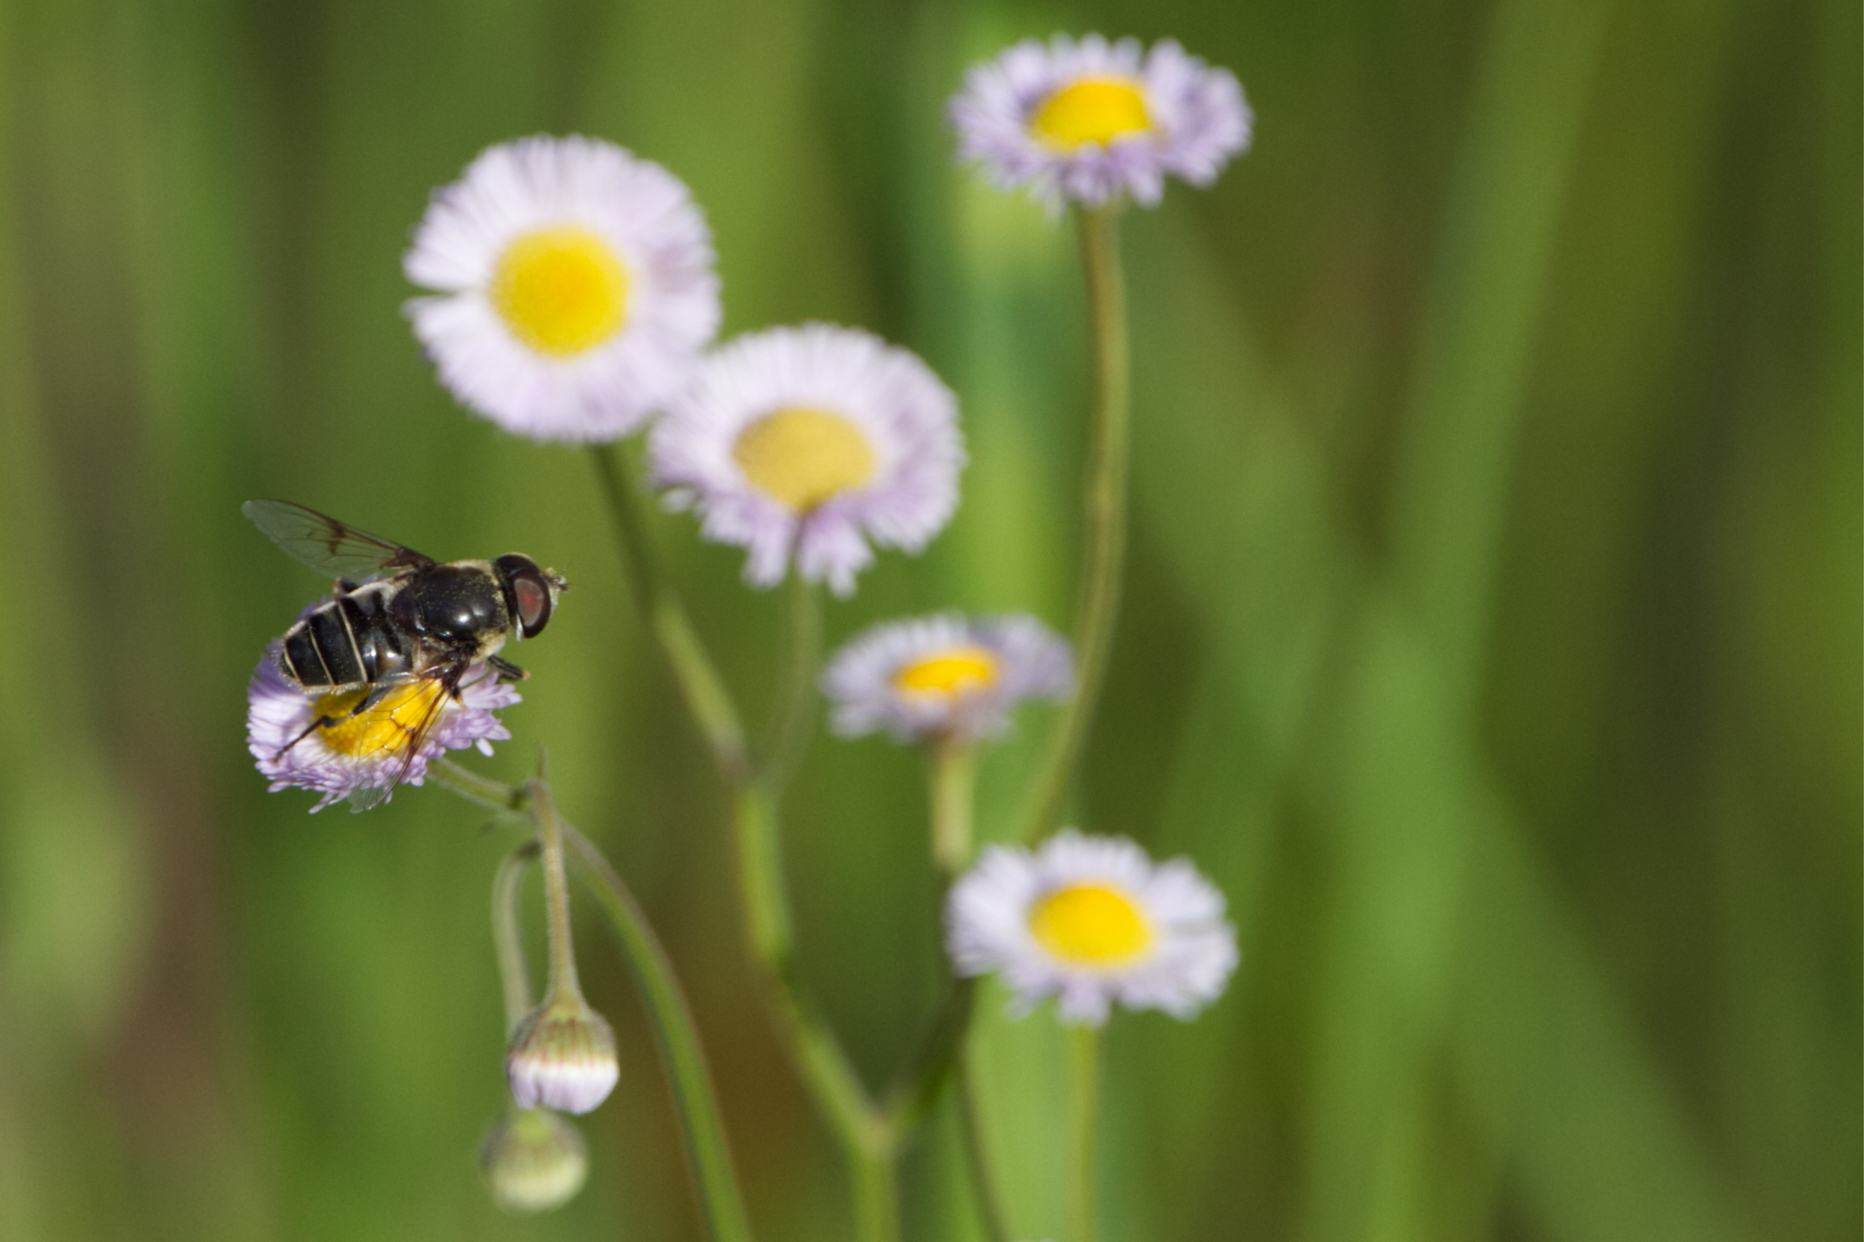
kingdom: Animalia
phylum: Arthropoda
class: Insecta
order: Diptera
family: Syrphidae
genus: Eristalis
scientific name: Eristalis saxorum
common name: Blue-polished drone fly
